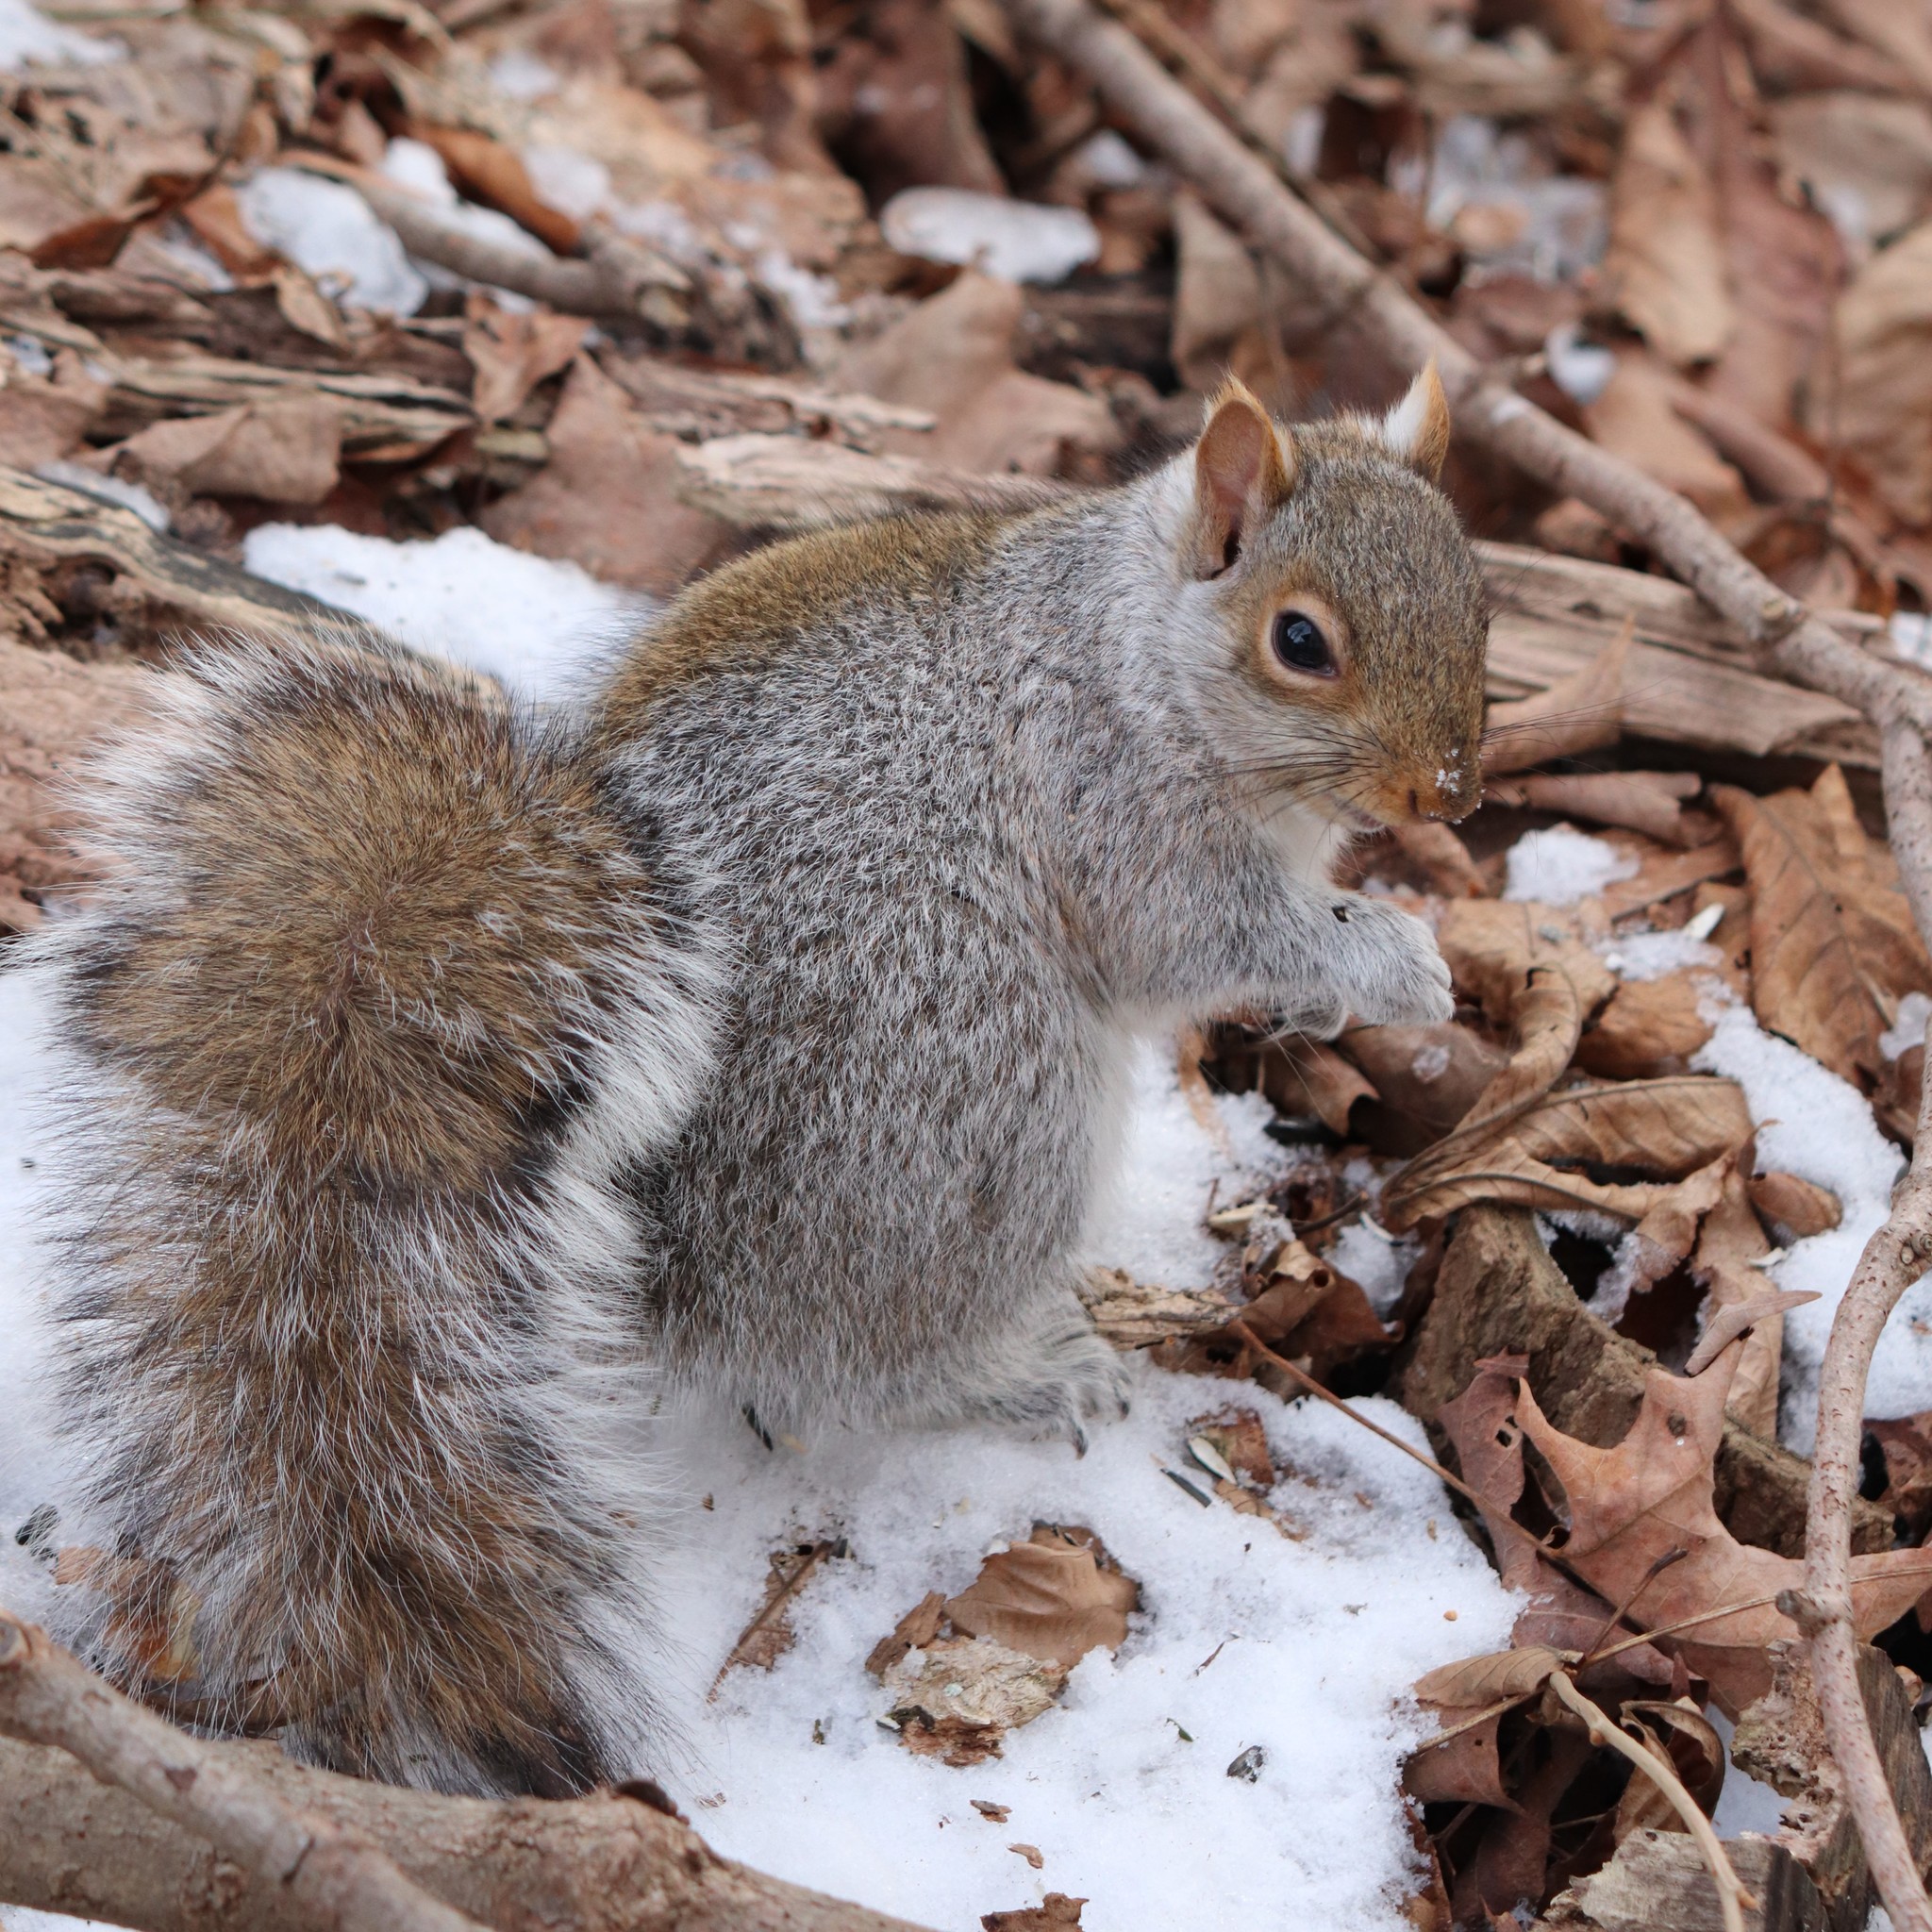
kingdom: Animalia
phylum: Chordata
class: Mammalia
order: Rodentia
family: Sciuridae
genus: Sciurus
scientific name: Sciurus carolinensis
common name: Eastern gray squirrel
